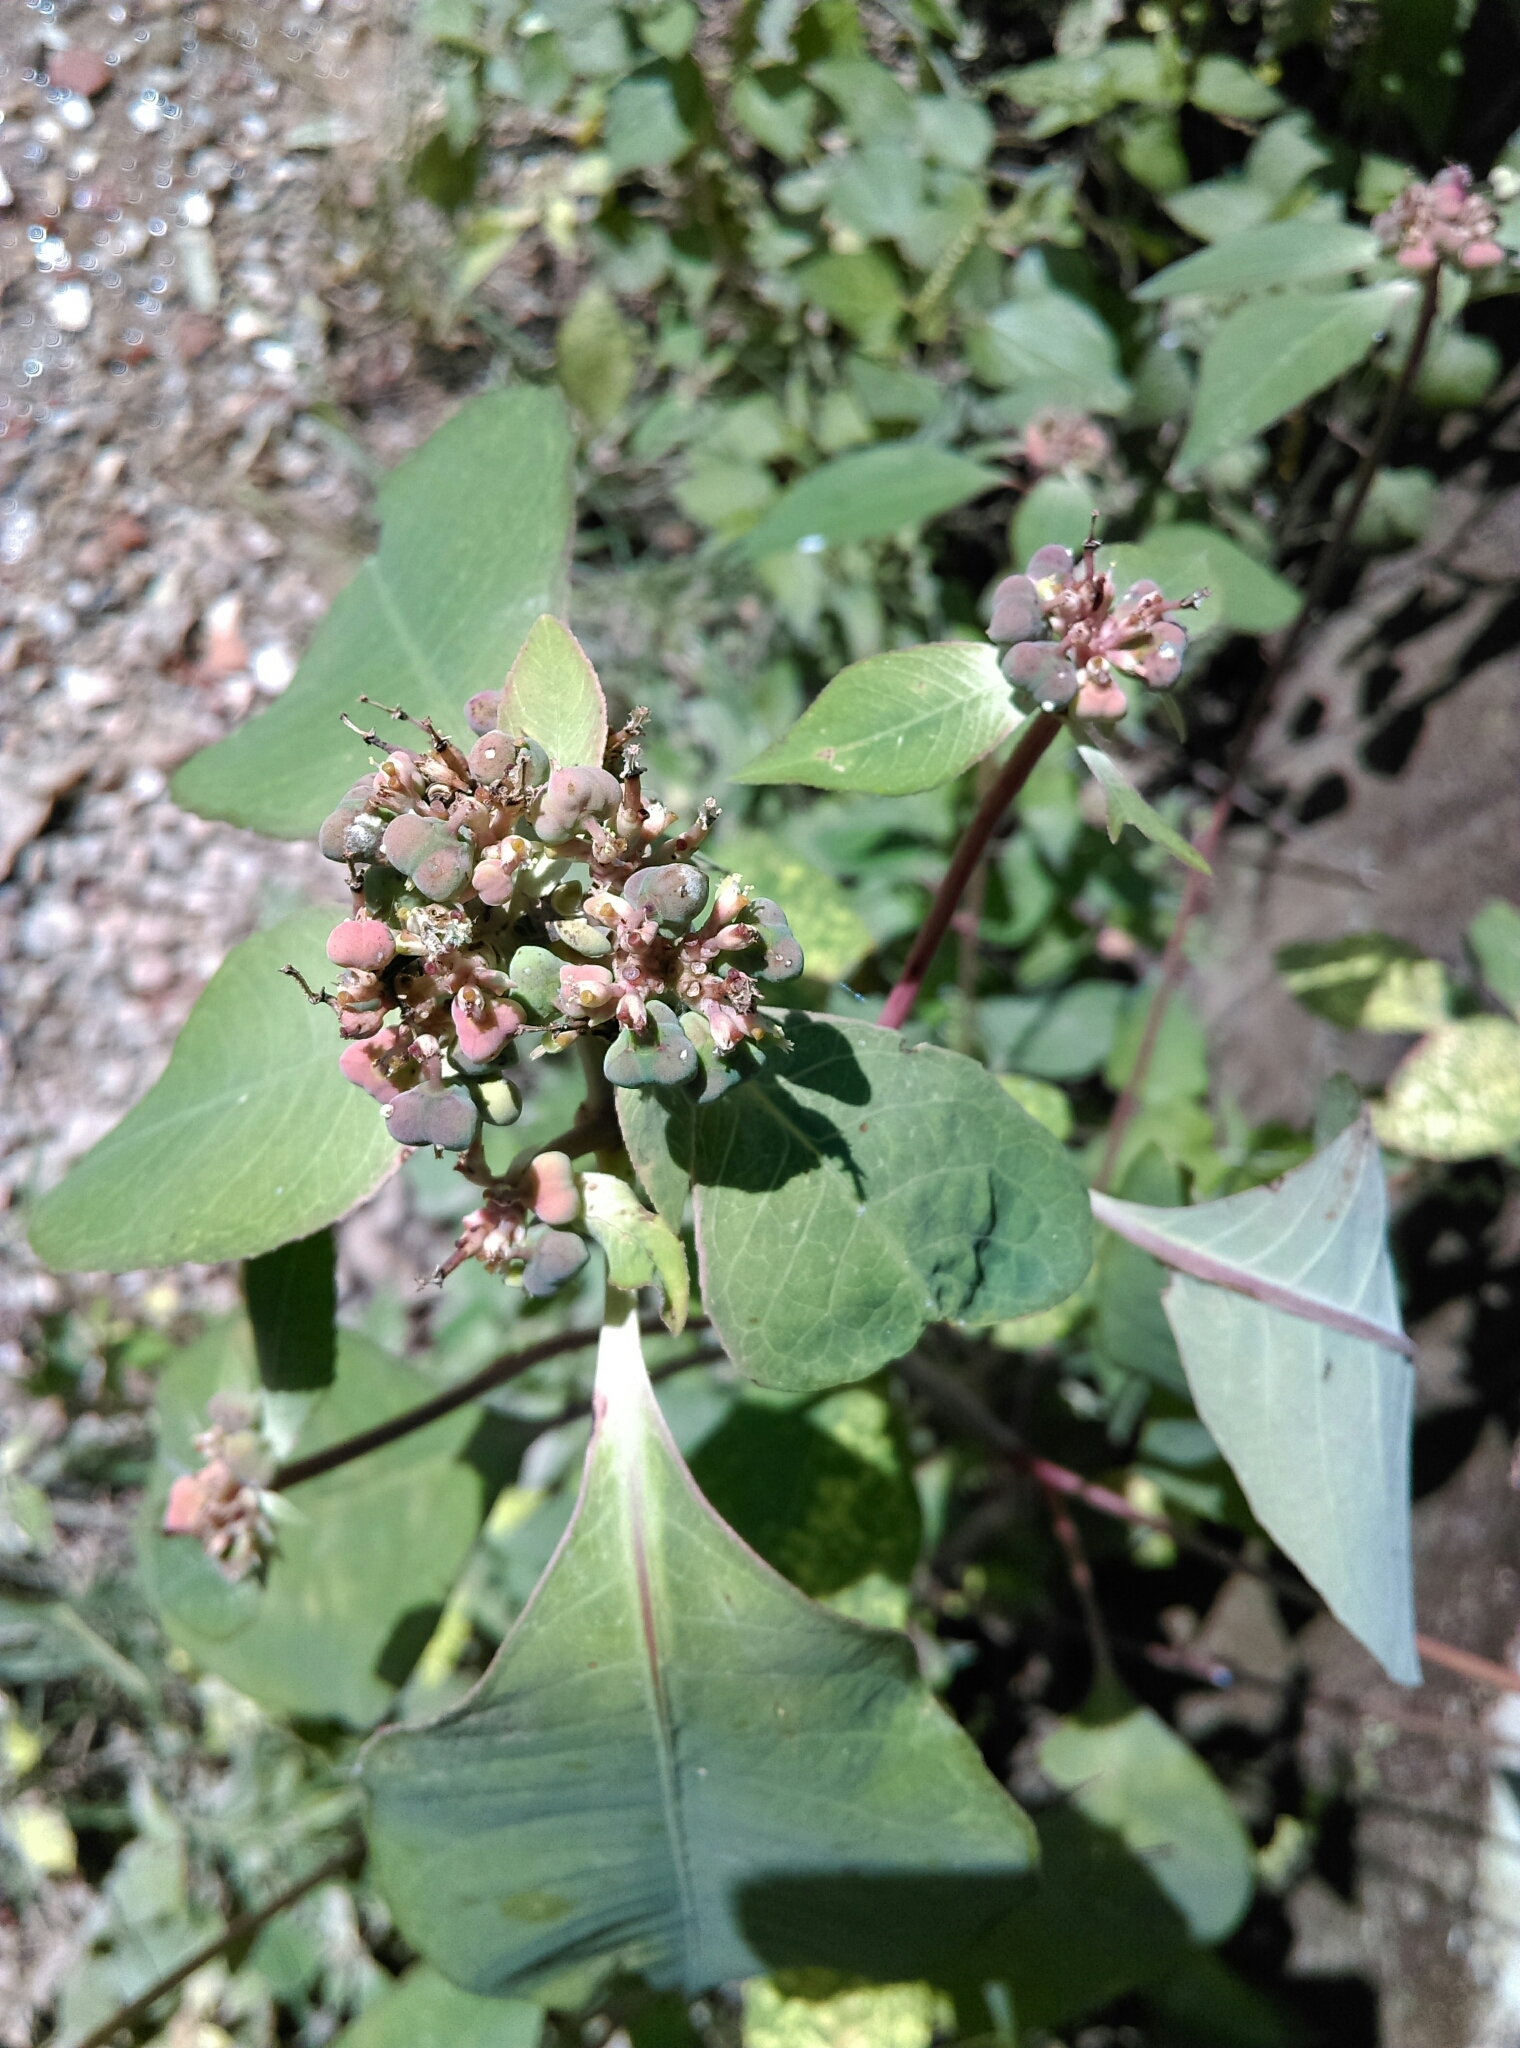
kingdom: Plantae
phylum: Tracheophyta
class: Magnoliopsida
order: Malpighiales
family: Euphorbiaceae
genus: Euphorbia
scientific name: Euphorbia heterophylla
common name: Mexican fireplant
